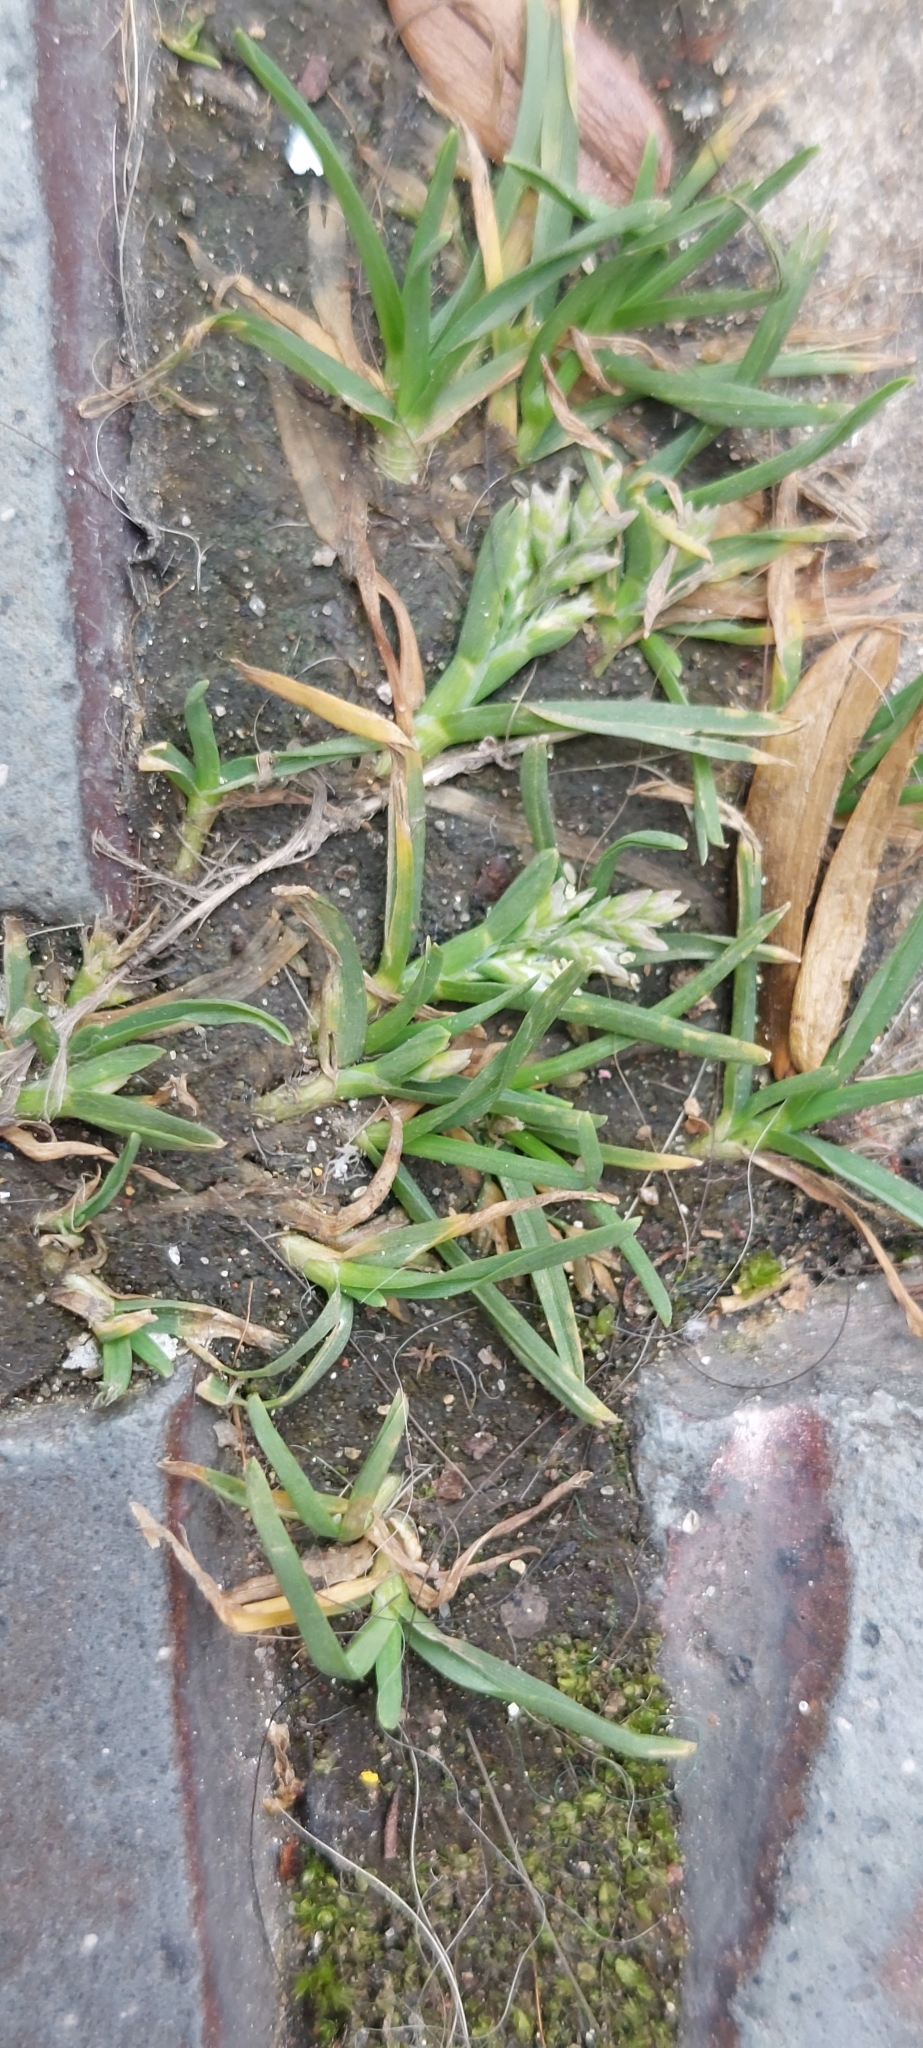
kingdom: Plantae
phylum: Tracheophyta
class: Liliopsida
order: Poales
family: Poaceae
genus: Poa
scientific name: Poa annua
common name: Annual bluegrass
